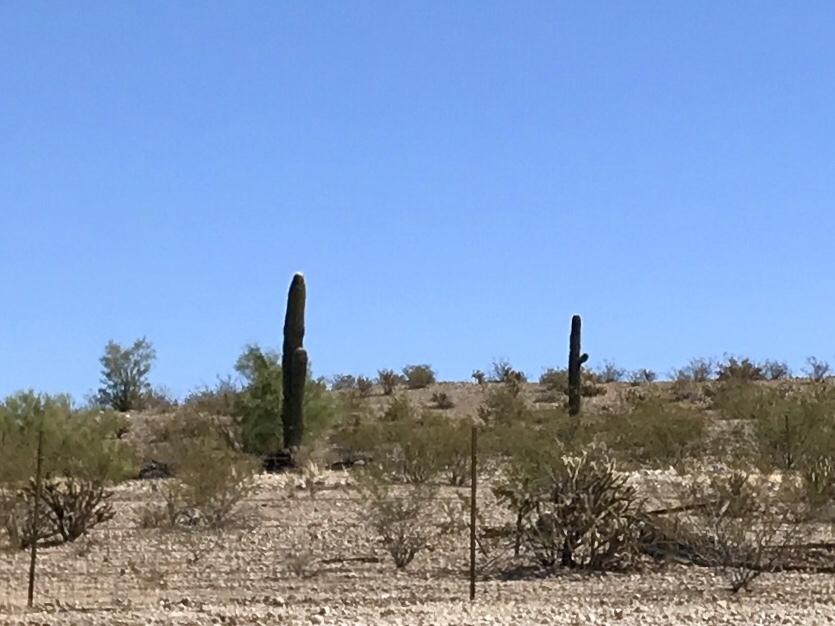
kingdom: Plantae
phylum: Tracheophyta
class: Magnoliopsida
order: Caryophyllales
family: Cactaceae
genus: Carnegiea
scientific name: Carnegiea gigantea
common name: Saguaro
